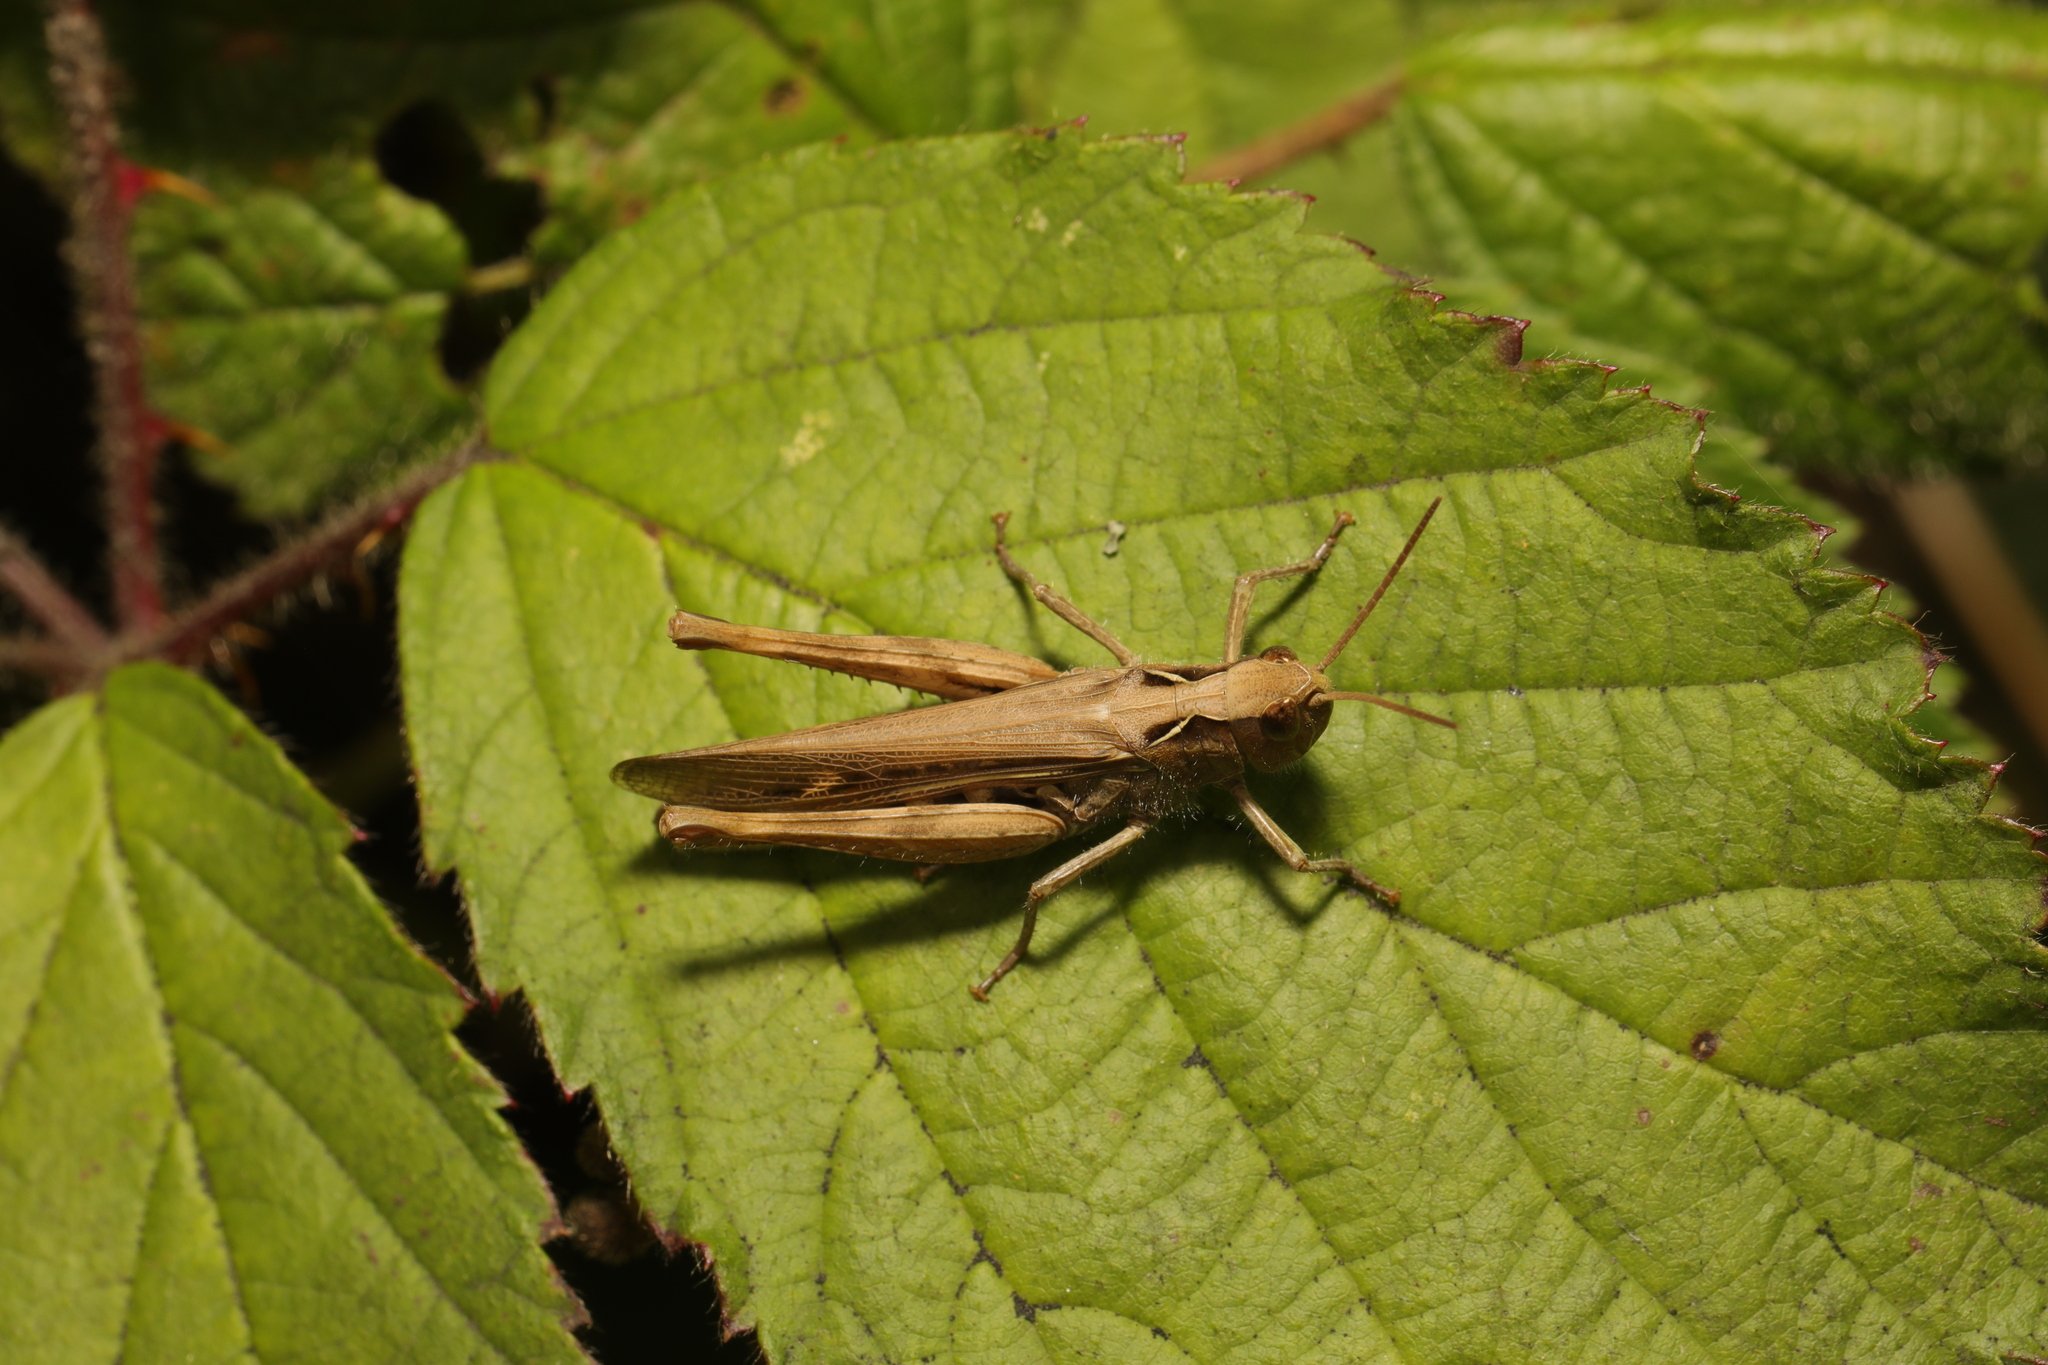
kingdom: Animalia
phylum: Arthropoda
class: Insecta
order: Orthoptera
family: Acrididae
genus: Chorthippus
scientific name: Chorthippus brunneus
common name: Field grasshopper
